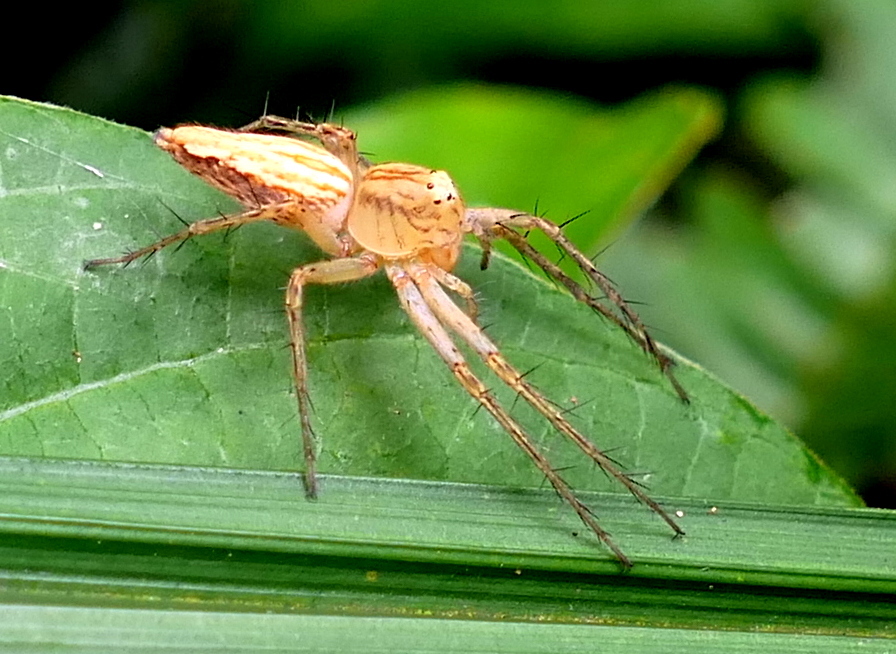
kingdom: Animalia
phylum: Arthropoda
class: Arachnida
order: Araneae
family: Oxyopidae
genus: Oxyopes
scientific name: Oxyopes salticus
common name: Lynx spiders
